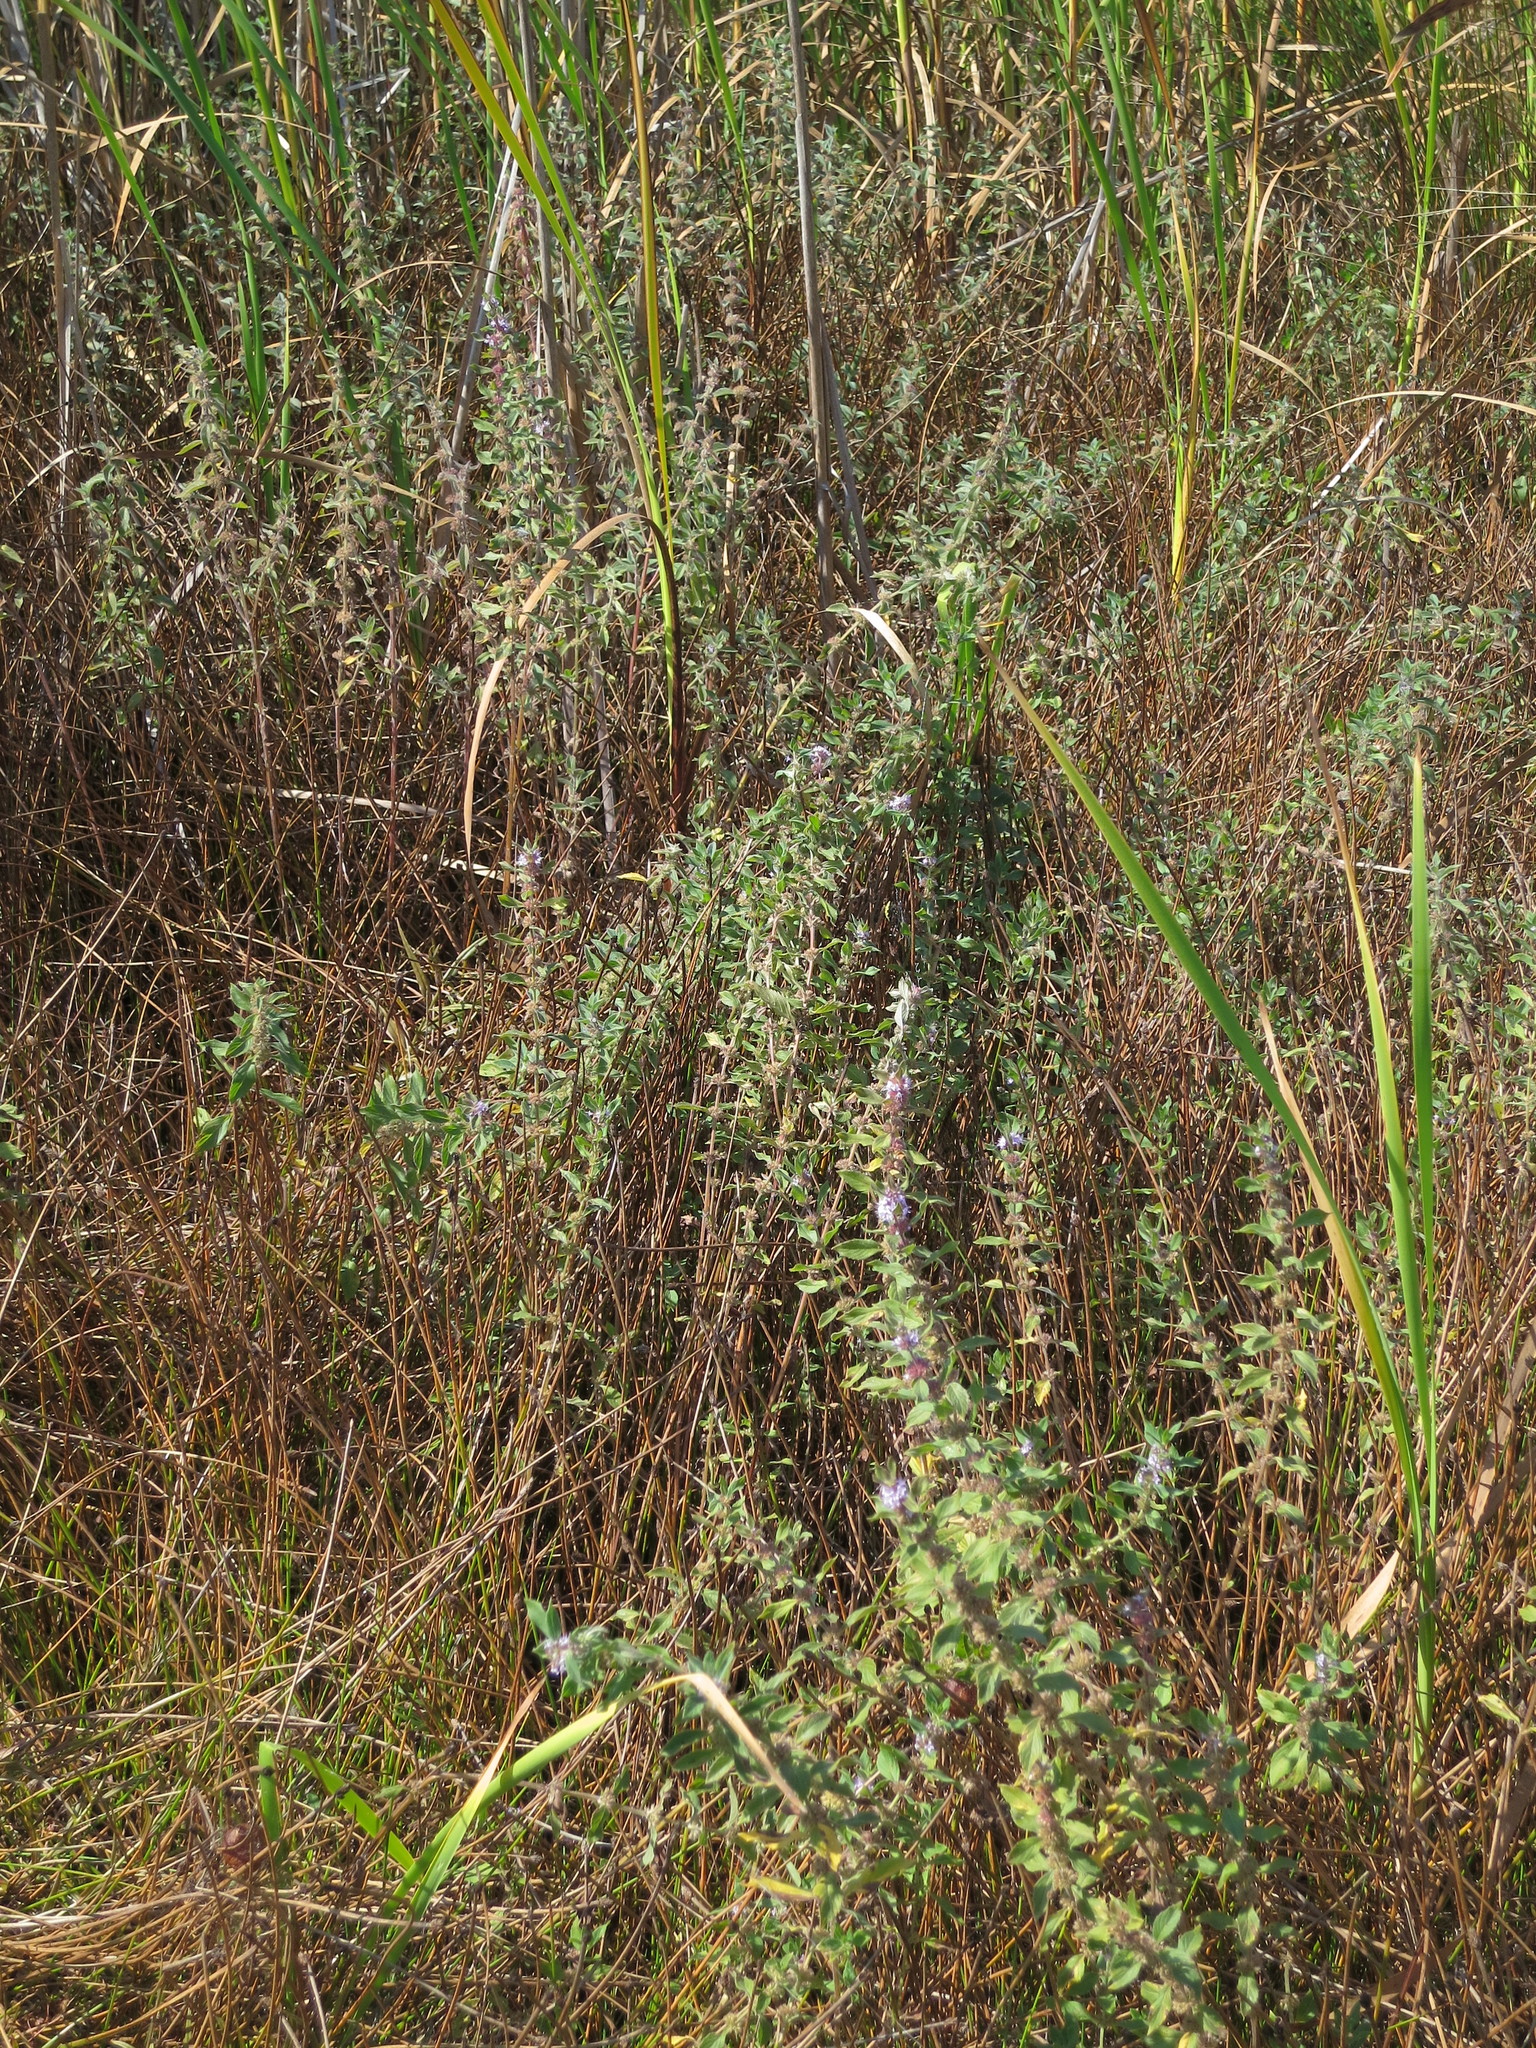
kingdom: Plantae
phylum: Tracheophyta
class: Magnoliopsida
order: Lamiales
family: Lamiaceae
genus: Mentha
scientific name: Mentha canadensis
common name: American corn mint
